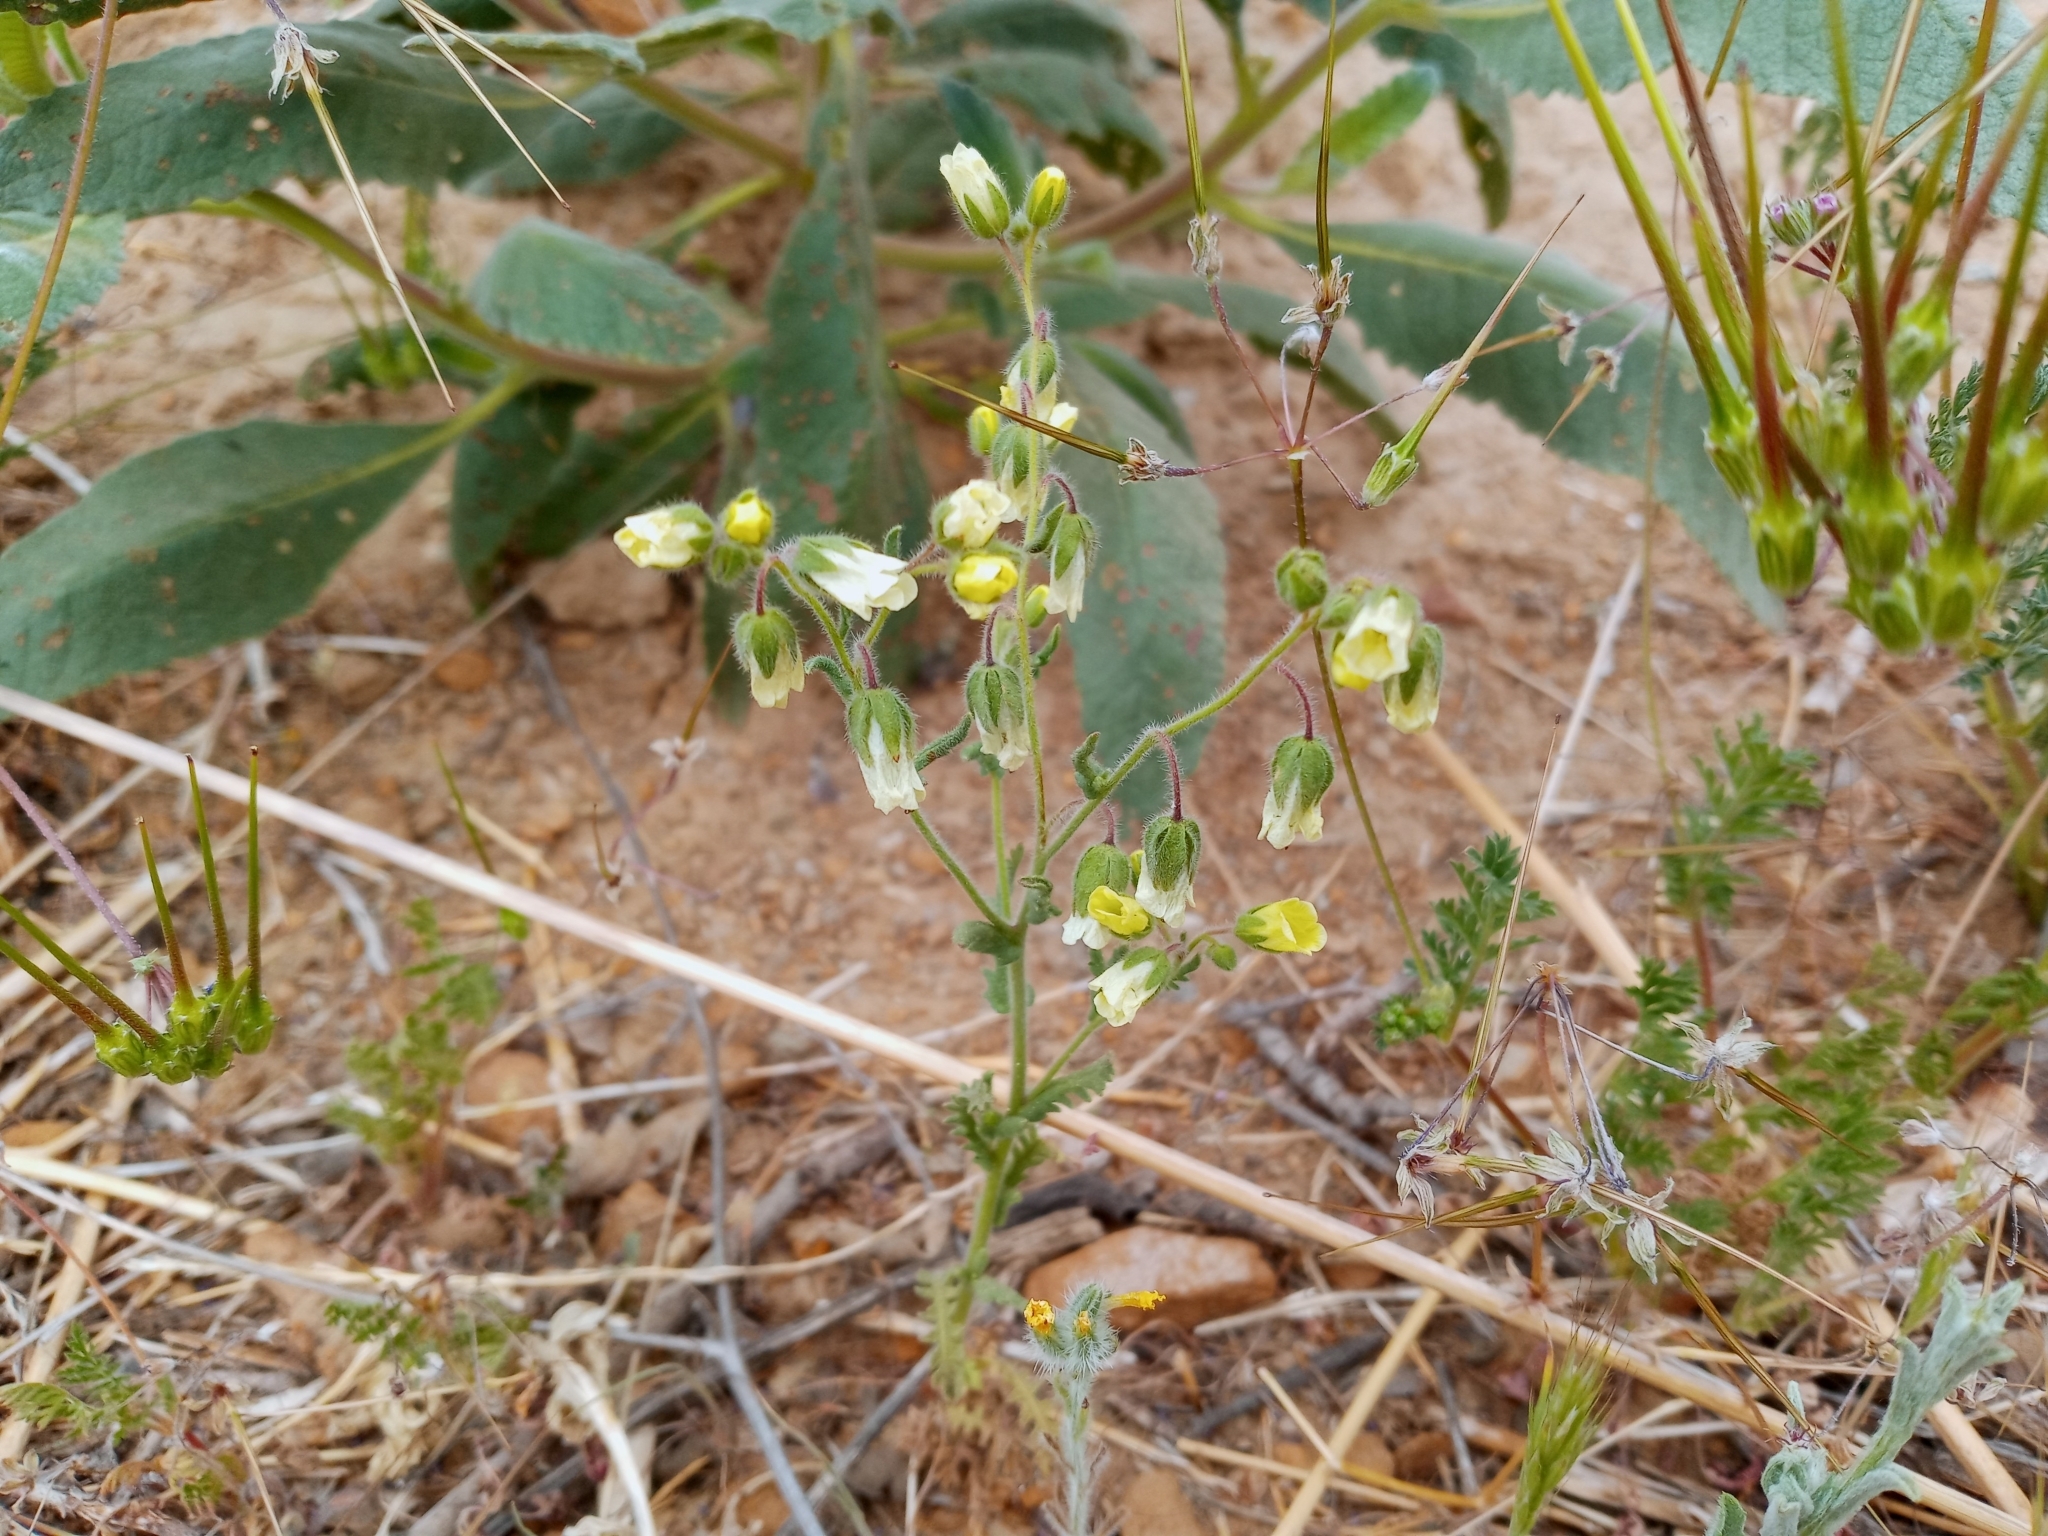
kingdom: Plantae
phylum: Tracheophyta
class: Magnoliopsida
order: Boraginales
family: Hydrophyllaceae
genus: Emmenanthe
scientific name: Emmenanthe penduliflora
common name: Whispering-bells
